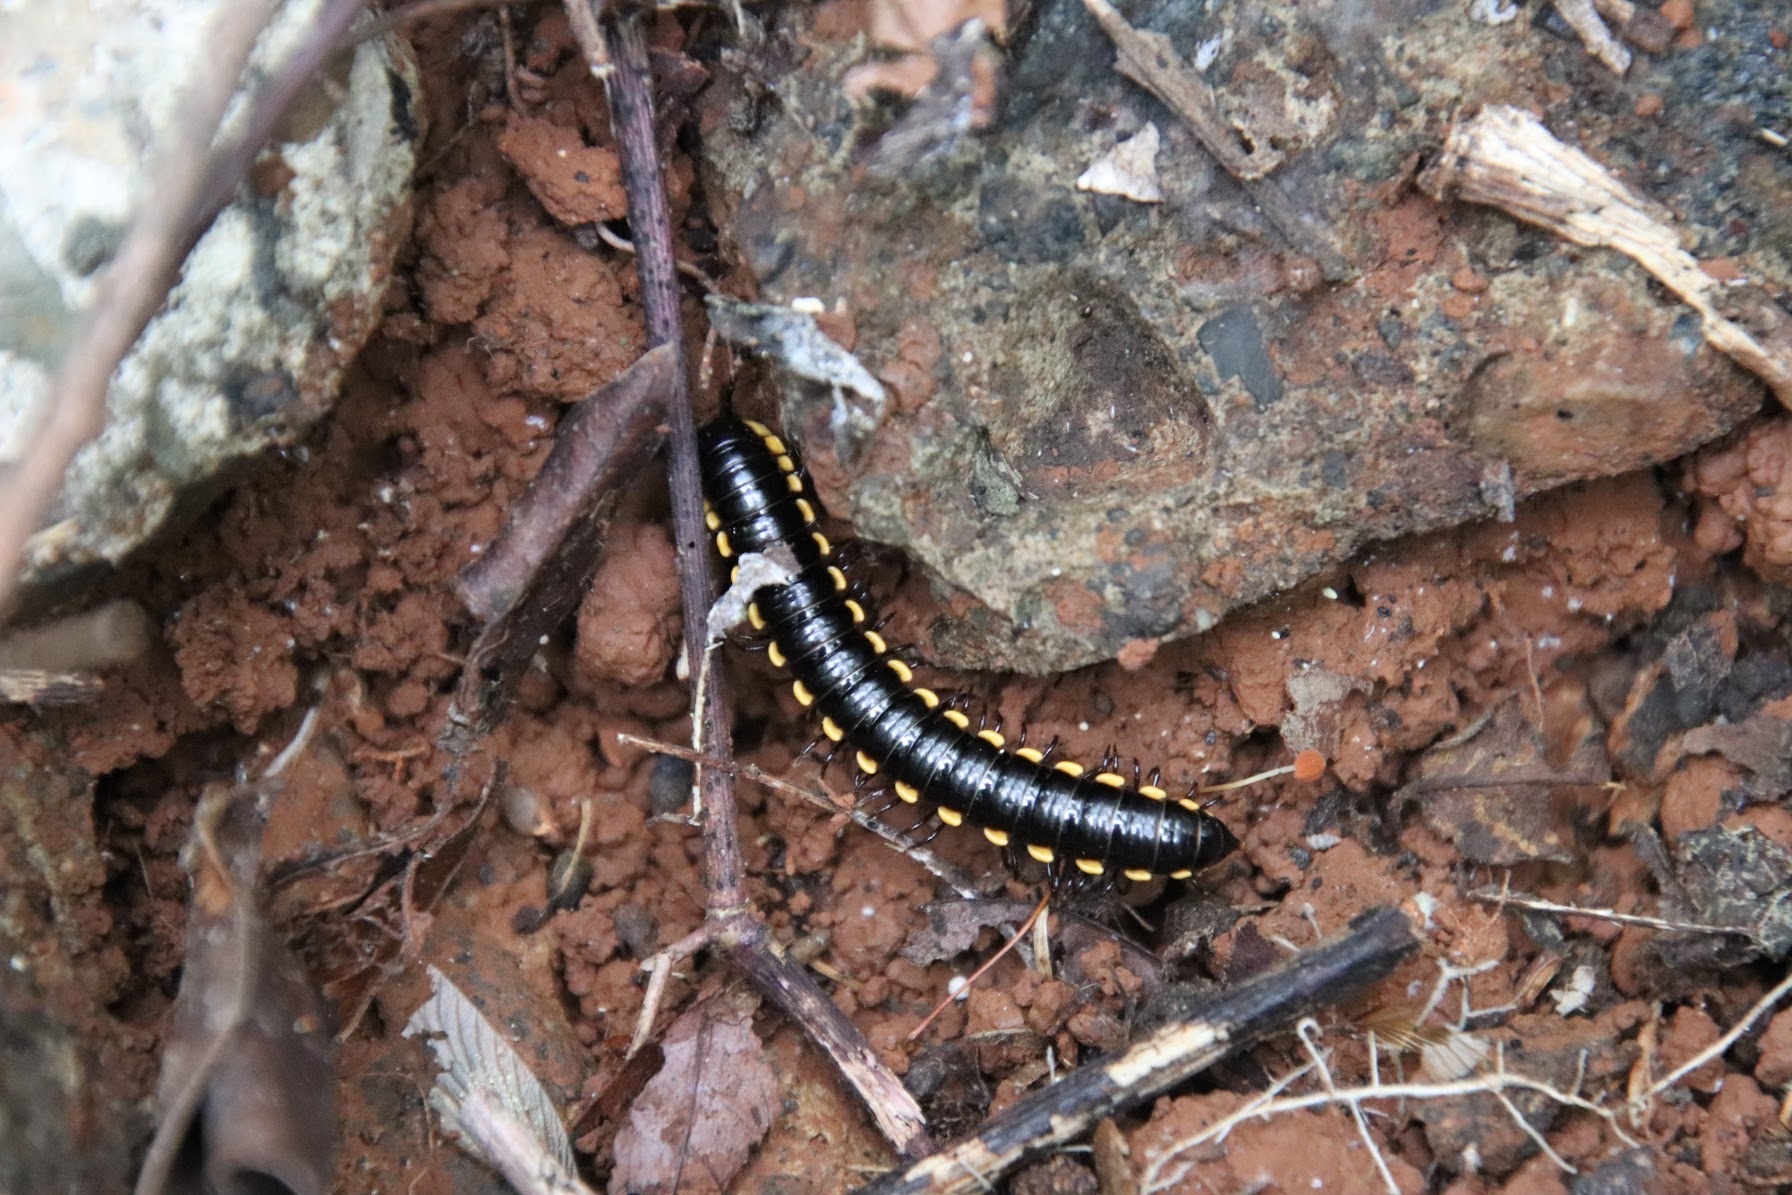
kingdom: Animalia
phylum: Arthropoda
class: Diplopoda
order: Polydesmida
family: Paradoxosomatidae
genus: Orthomorpha
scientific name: Orthomorpha coarctata
